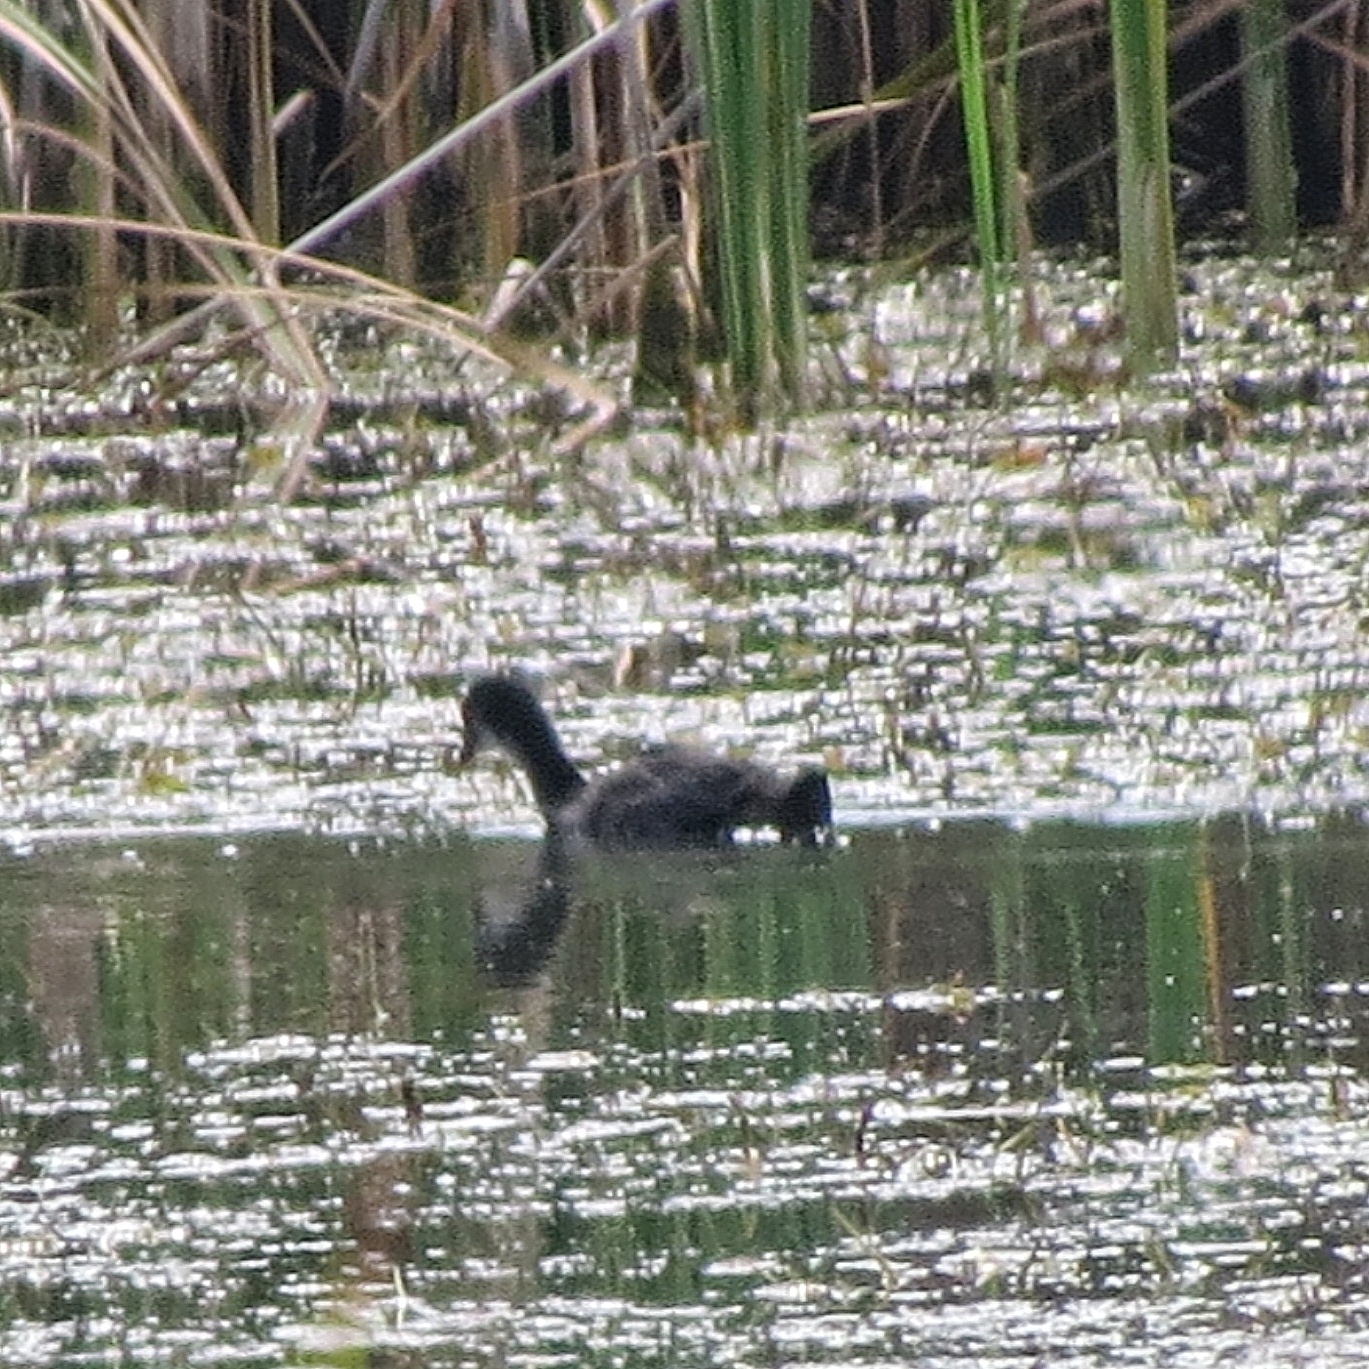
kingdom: Animalia
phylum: Chordata
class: Aves
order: Gruiformes
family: Rallidae
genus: Fulica
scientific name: Fulica atra
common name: Eurasian coot
